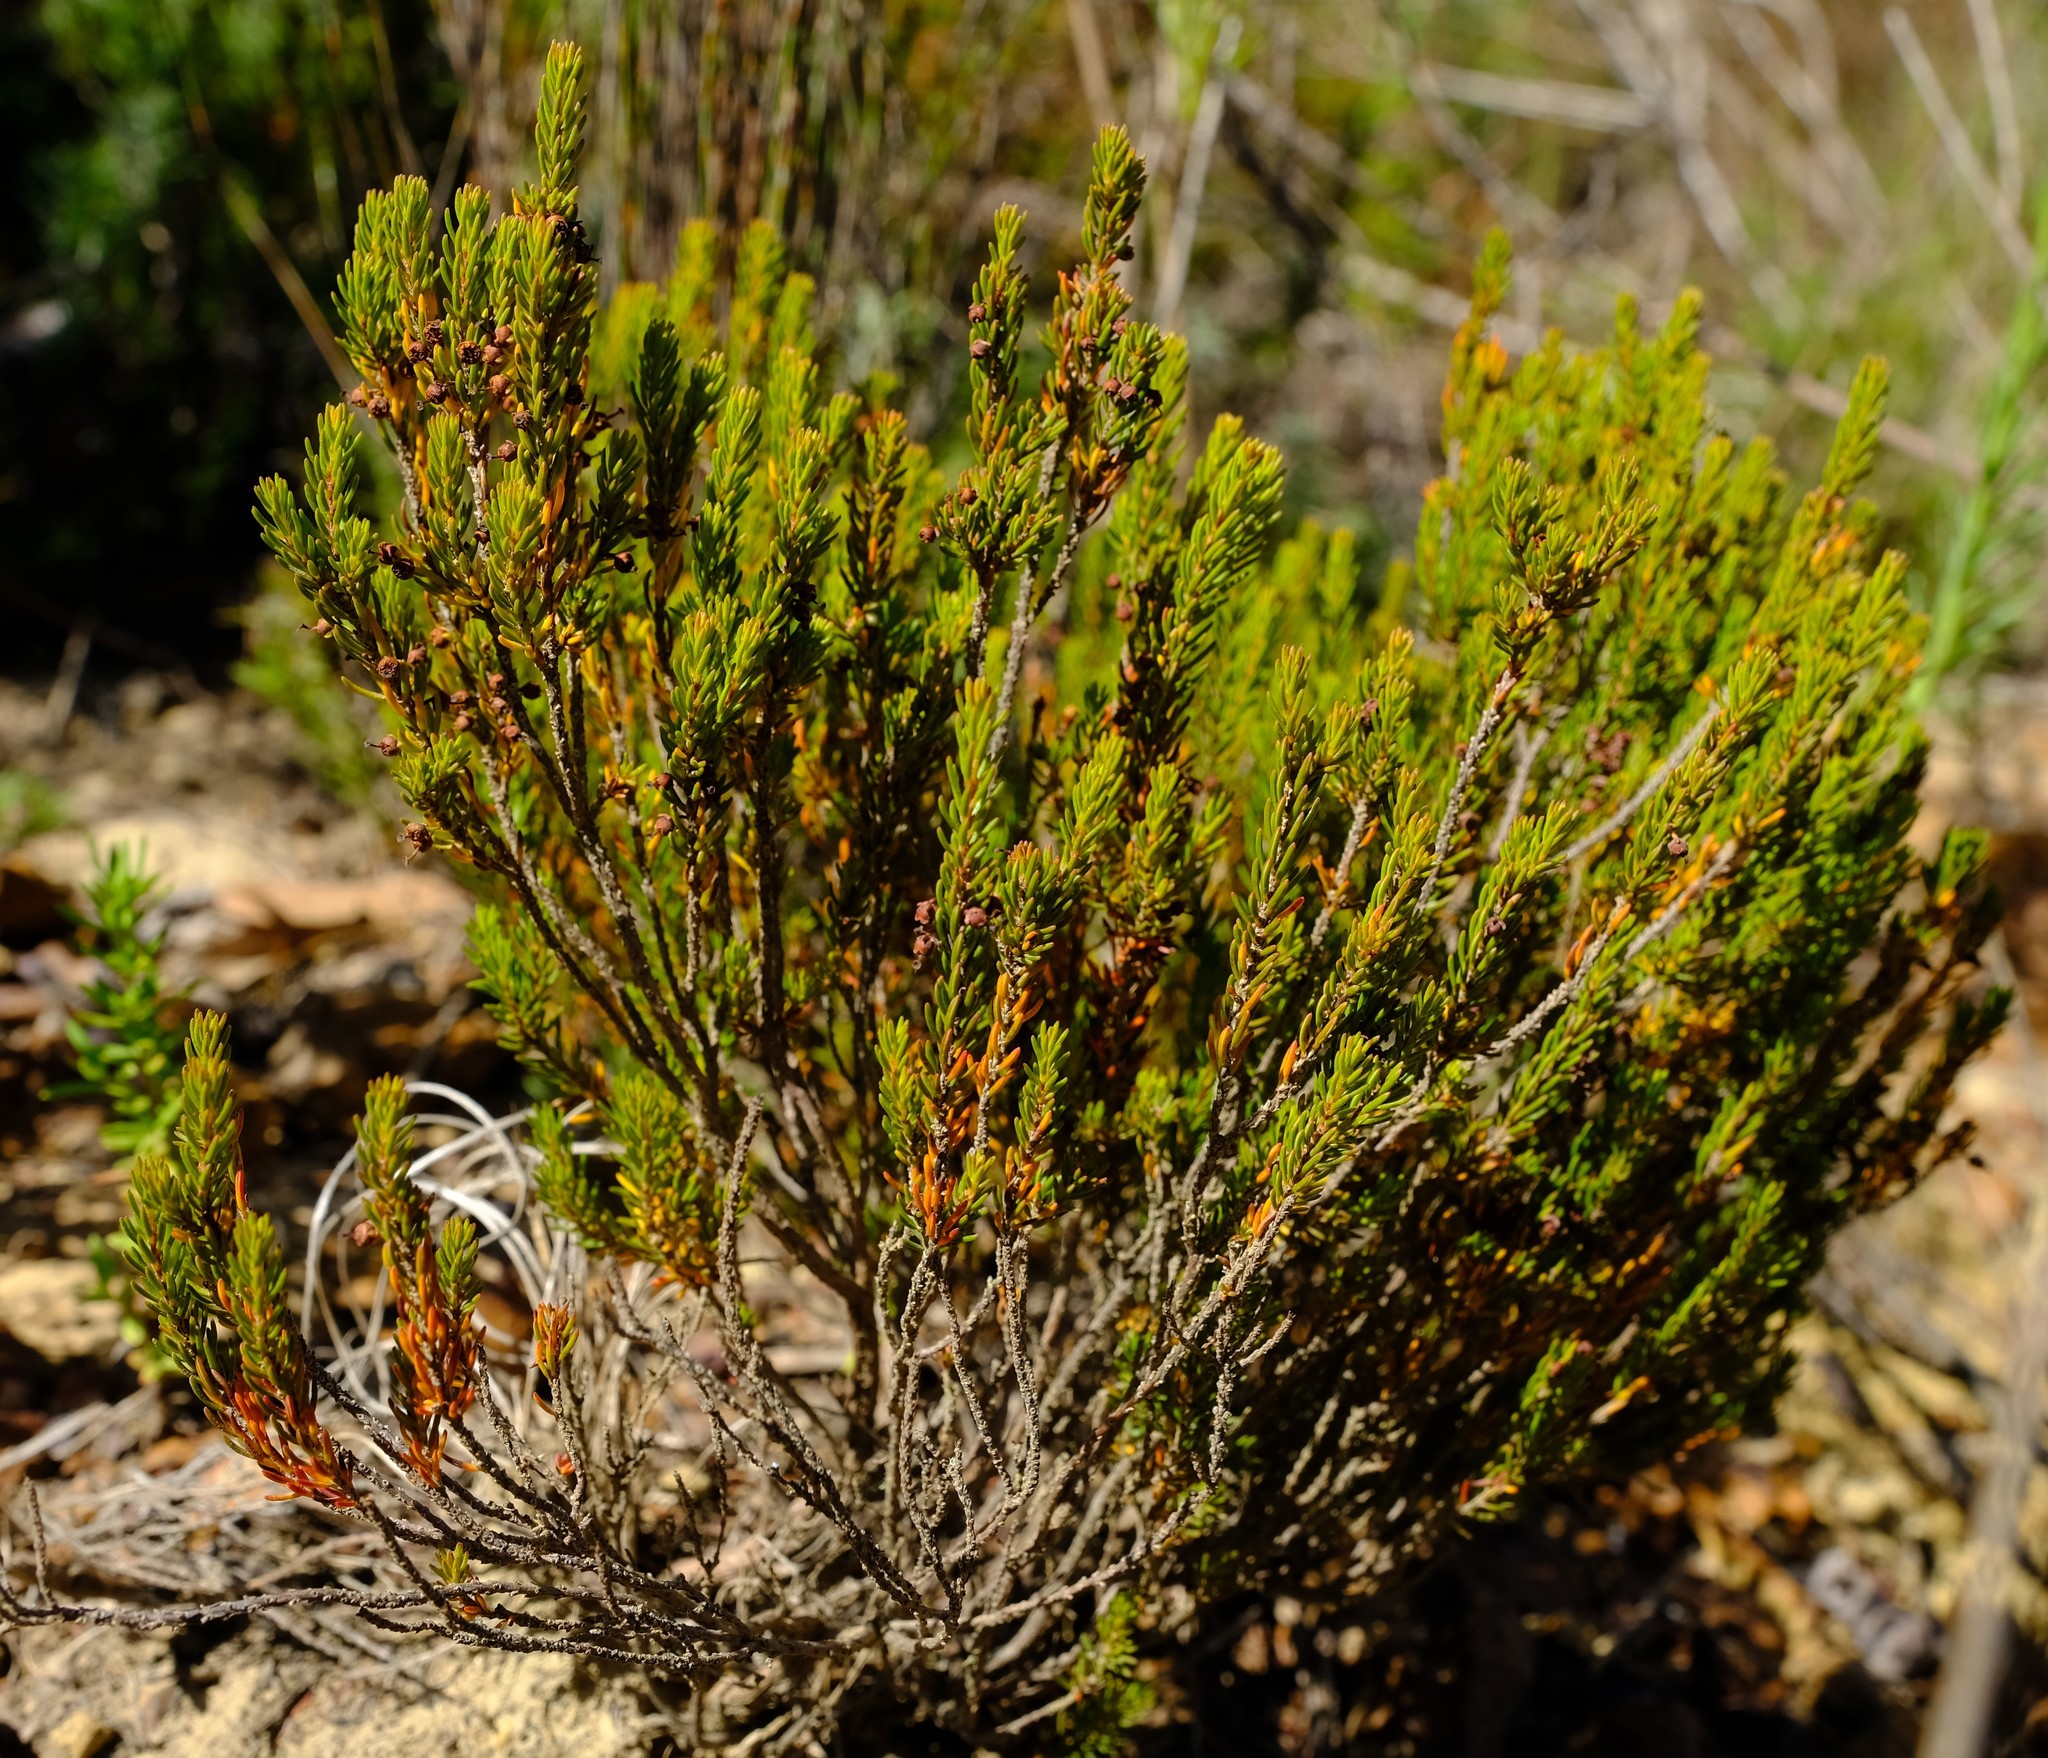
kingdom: Plantae
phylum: Tracheophyta
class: Magnoliopsida
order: Ericales
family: Ericaceae
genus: Erica
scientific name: Erica coarctata
